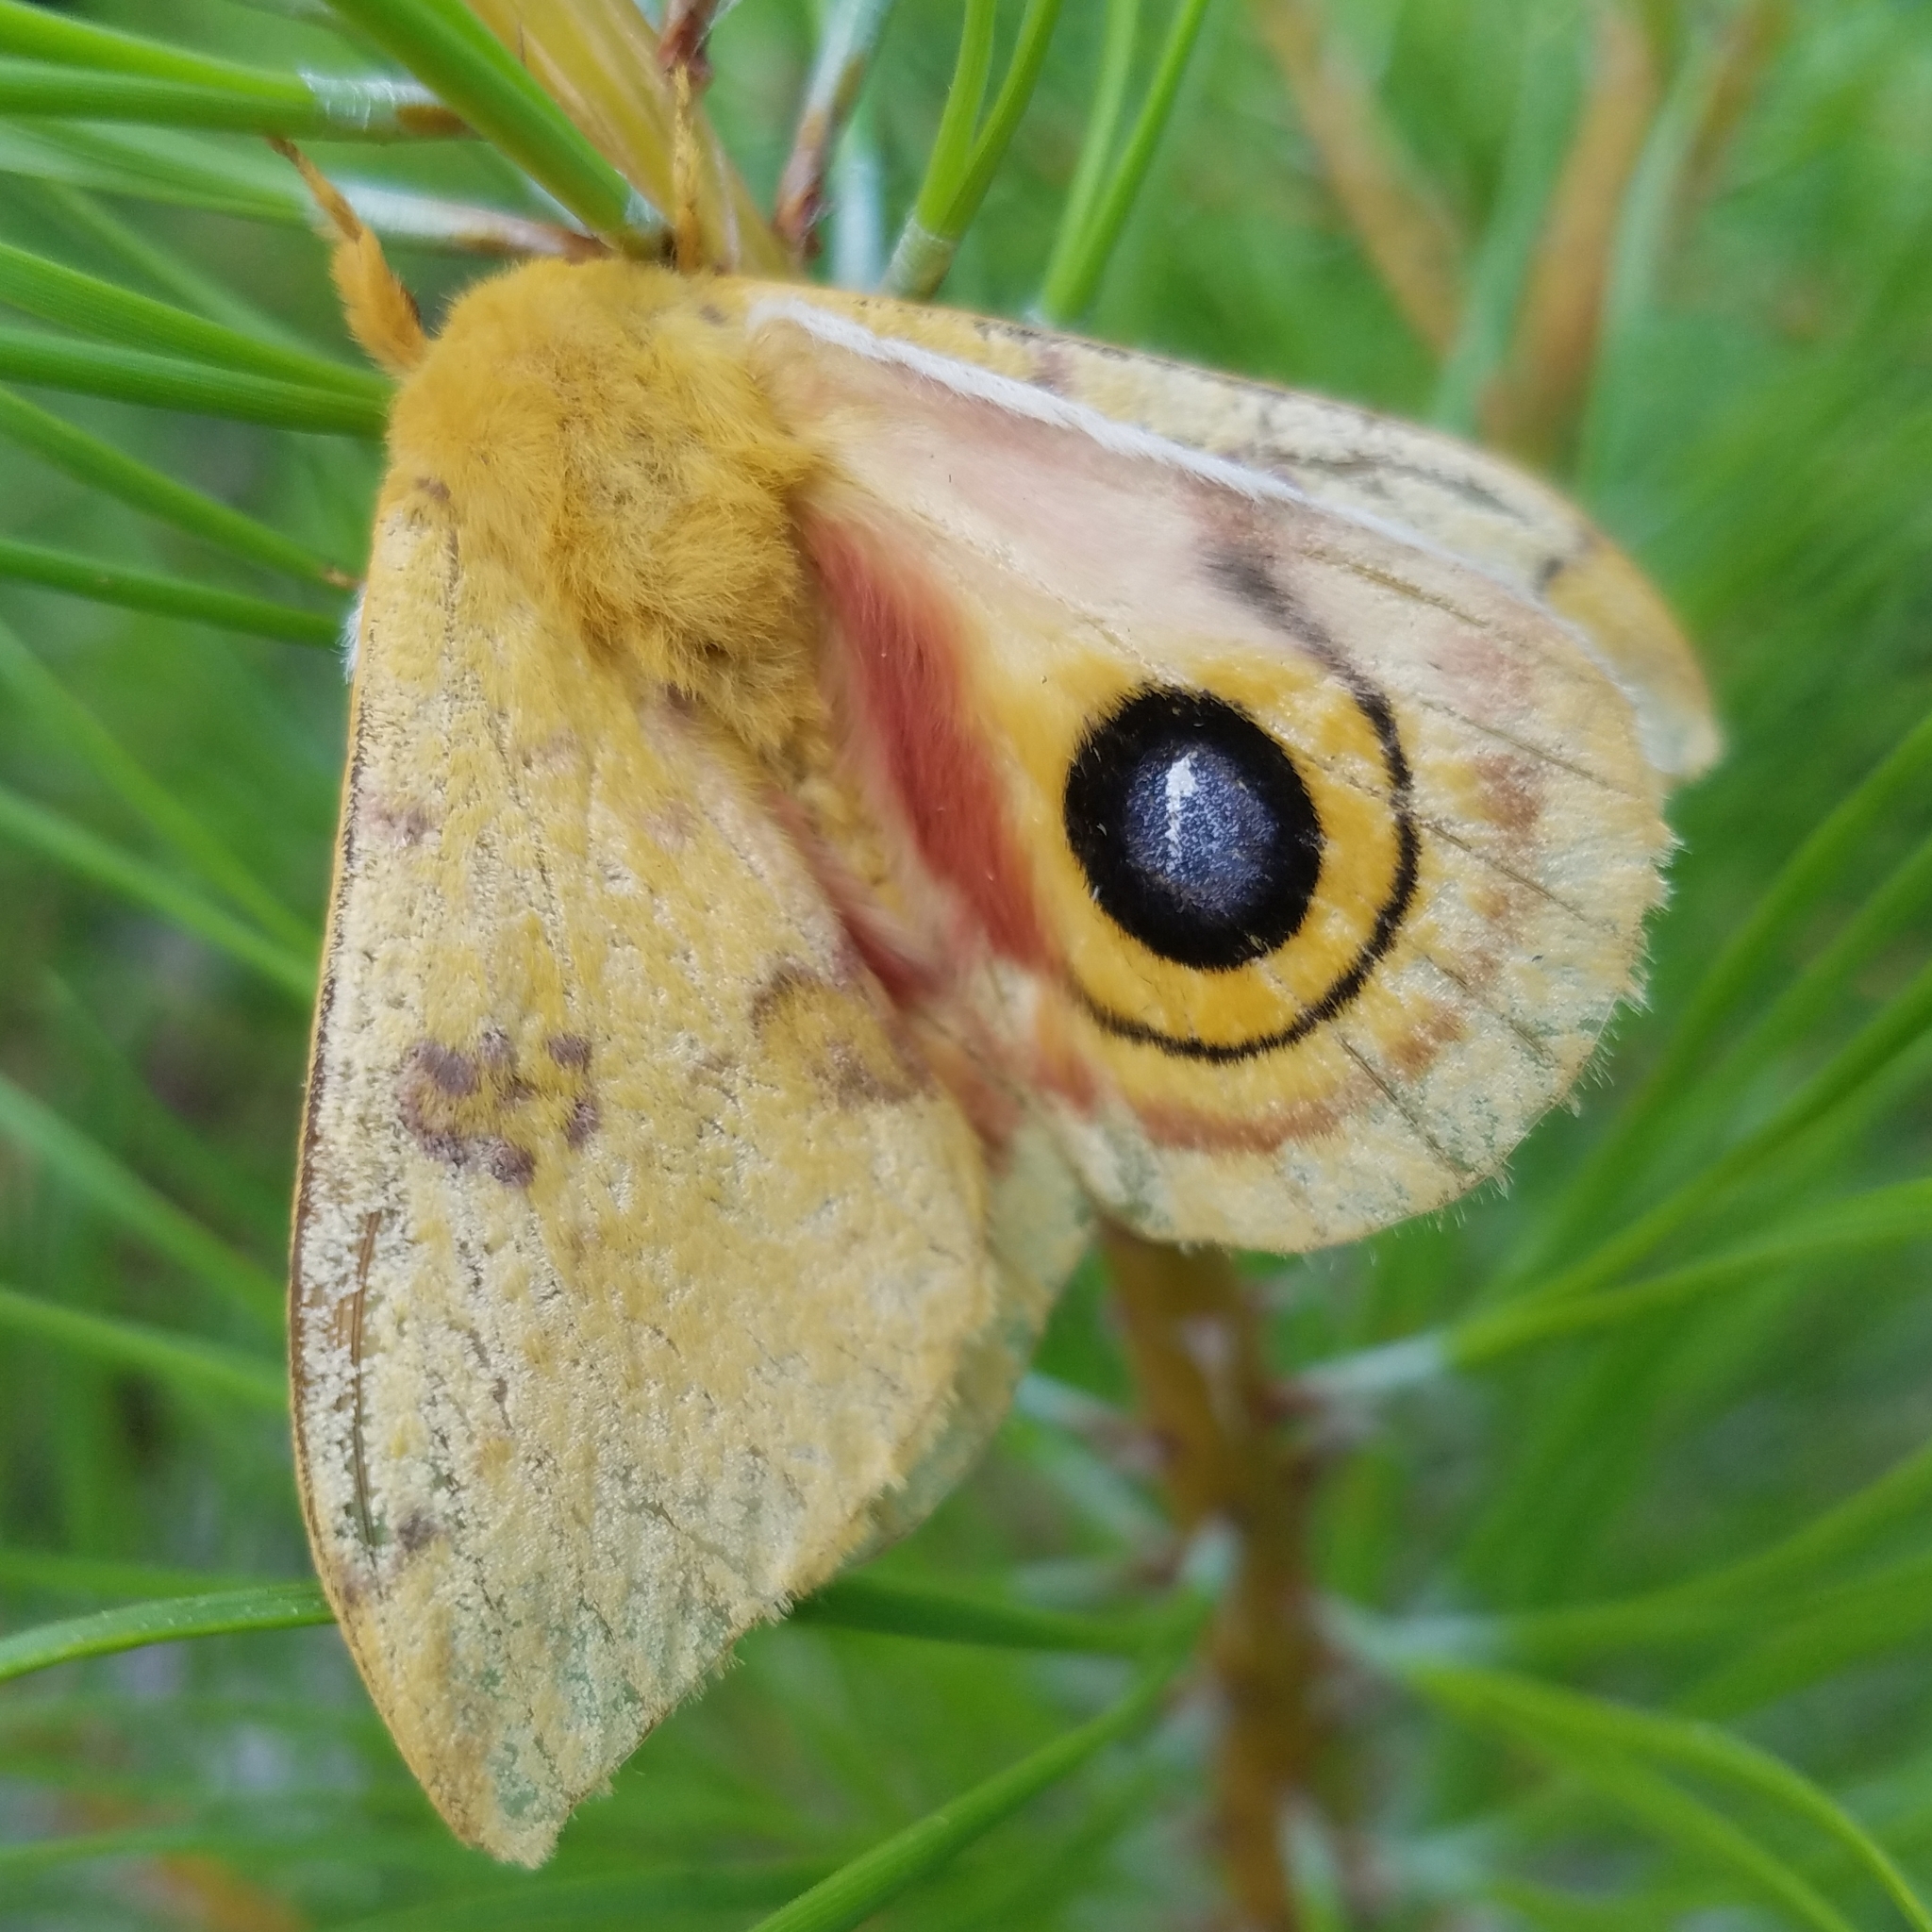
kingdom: Animalia
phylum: Arthropoda
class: Insecta
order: Lepidoptera
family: Saturniidae
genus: Automeris
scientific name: Automeris io
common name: Io moth
